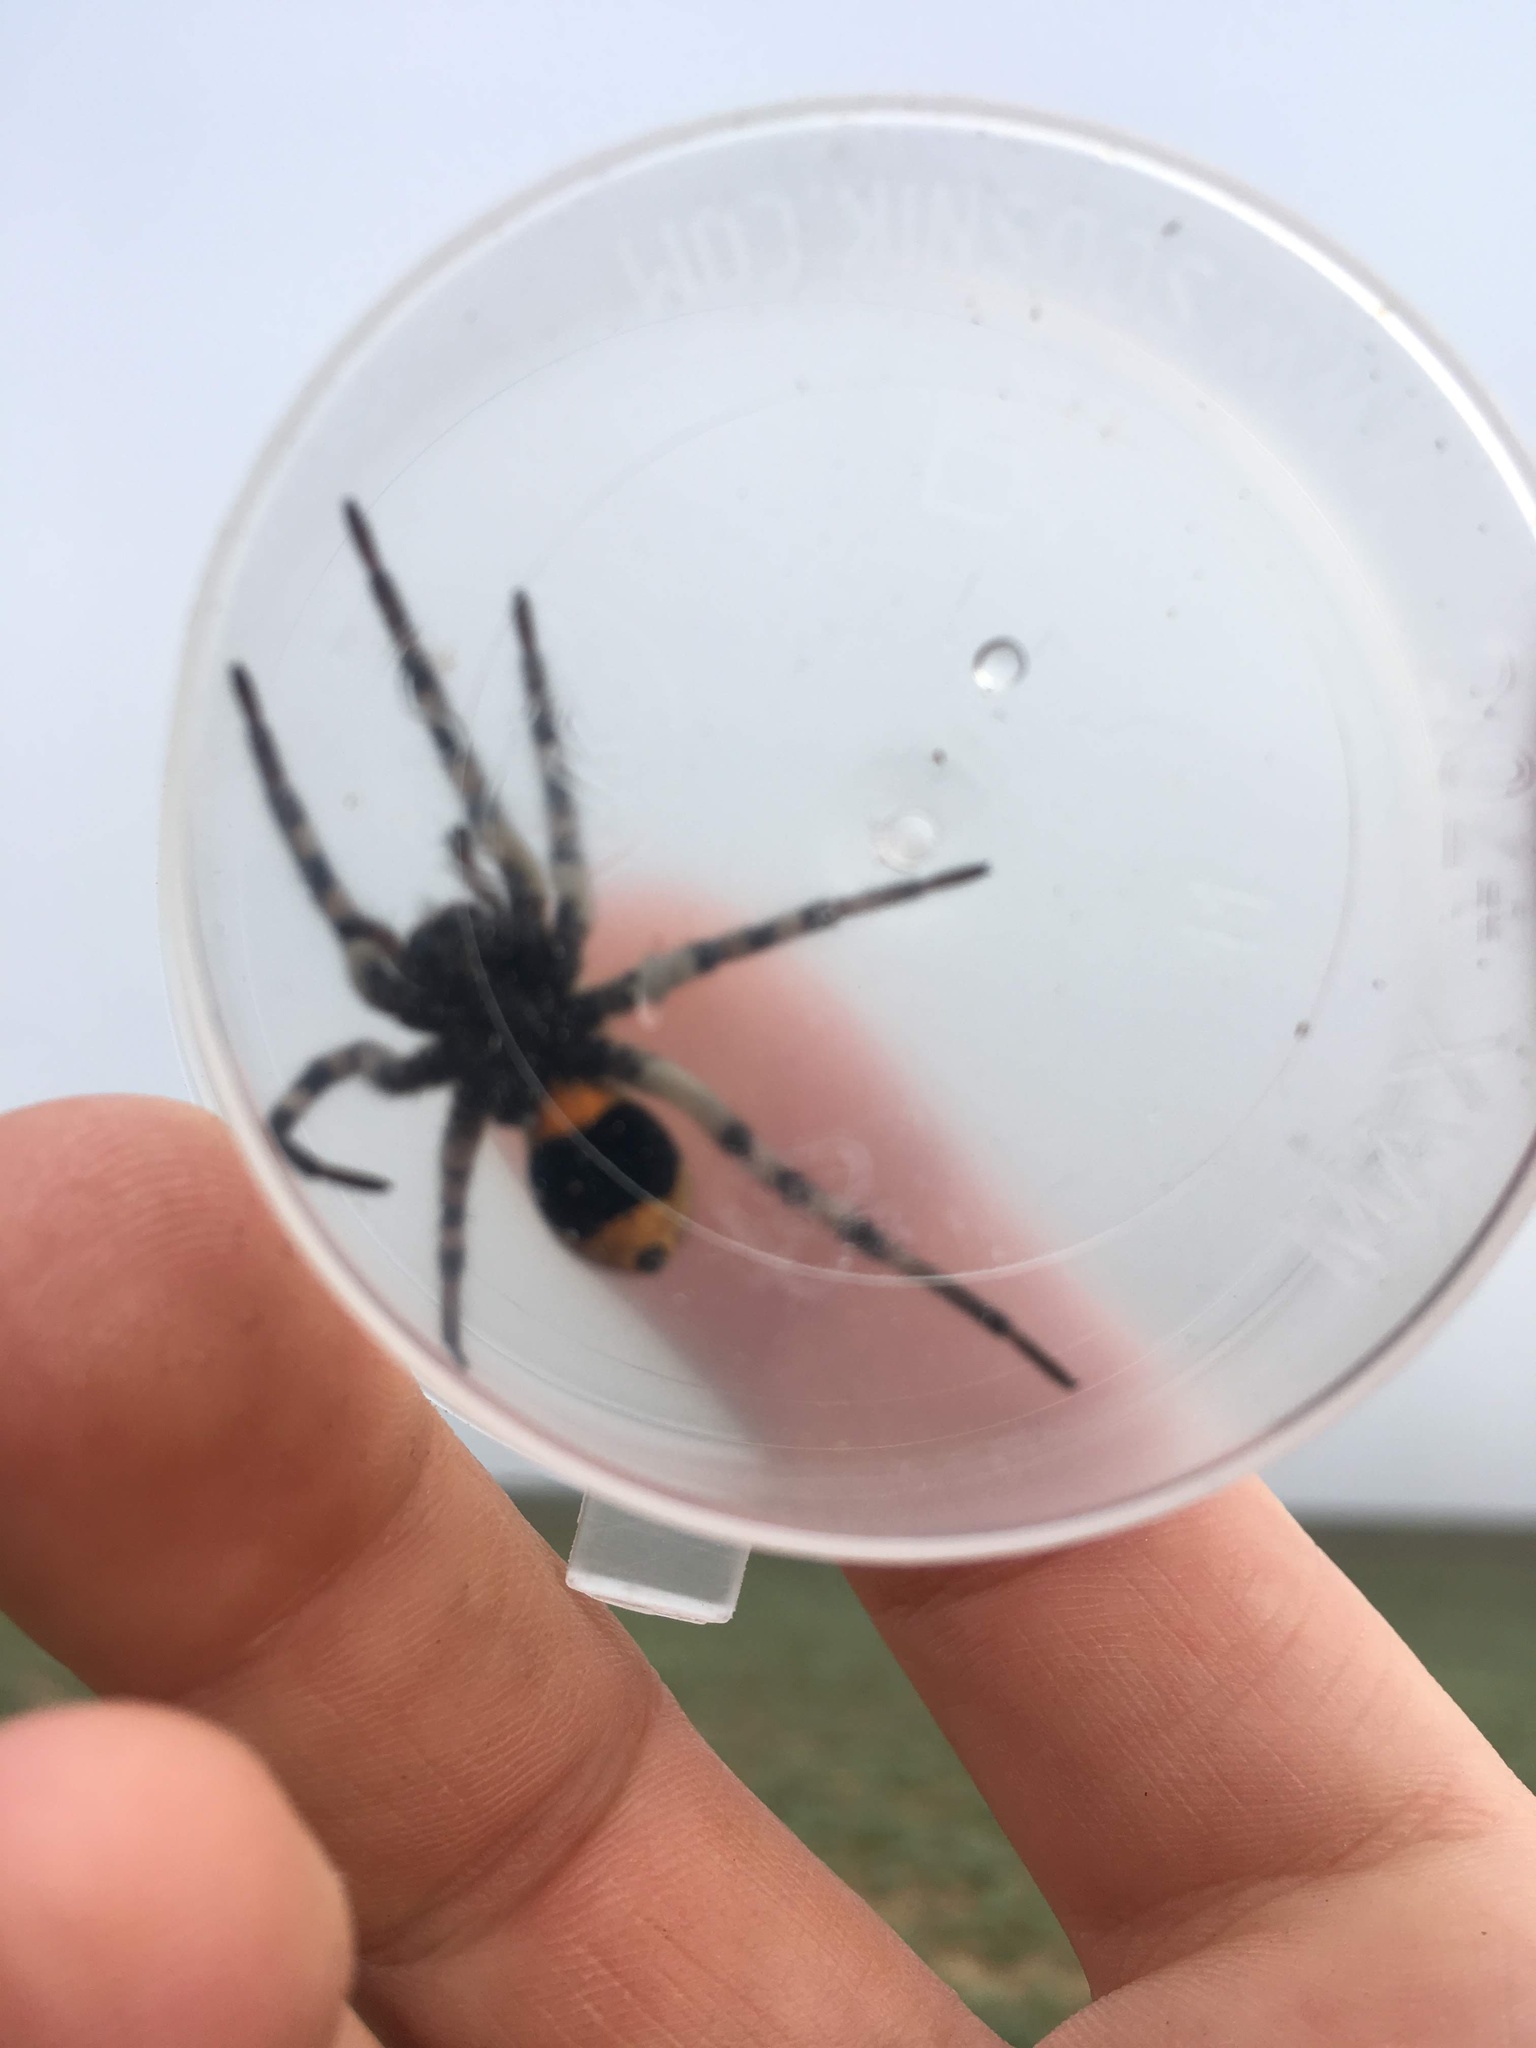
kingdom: Animalia
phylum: Arthropoda
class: Arachnida
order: Araneae
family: Lycosidae
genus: Lycosa
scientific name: Lycosa praegrandis
